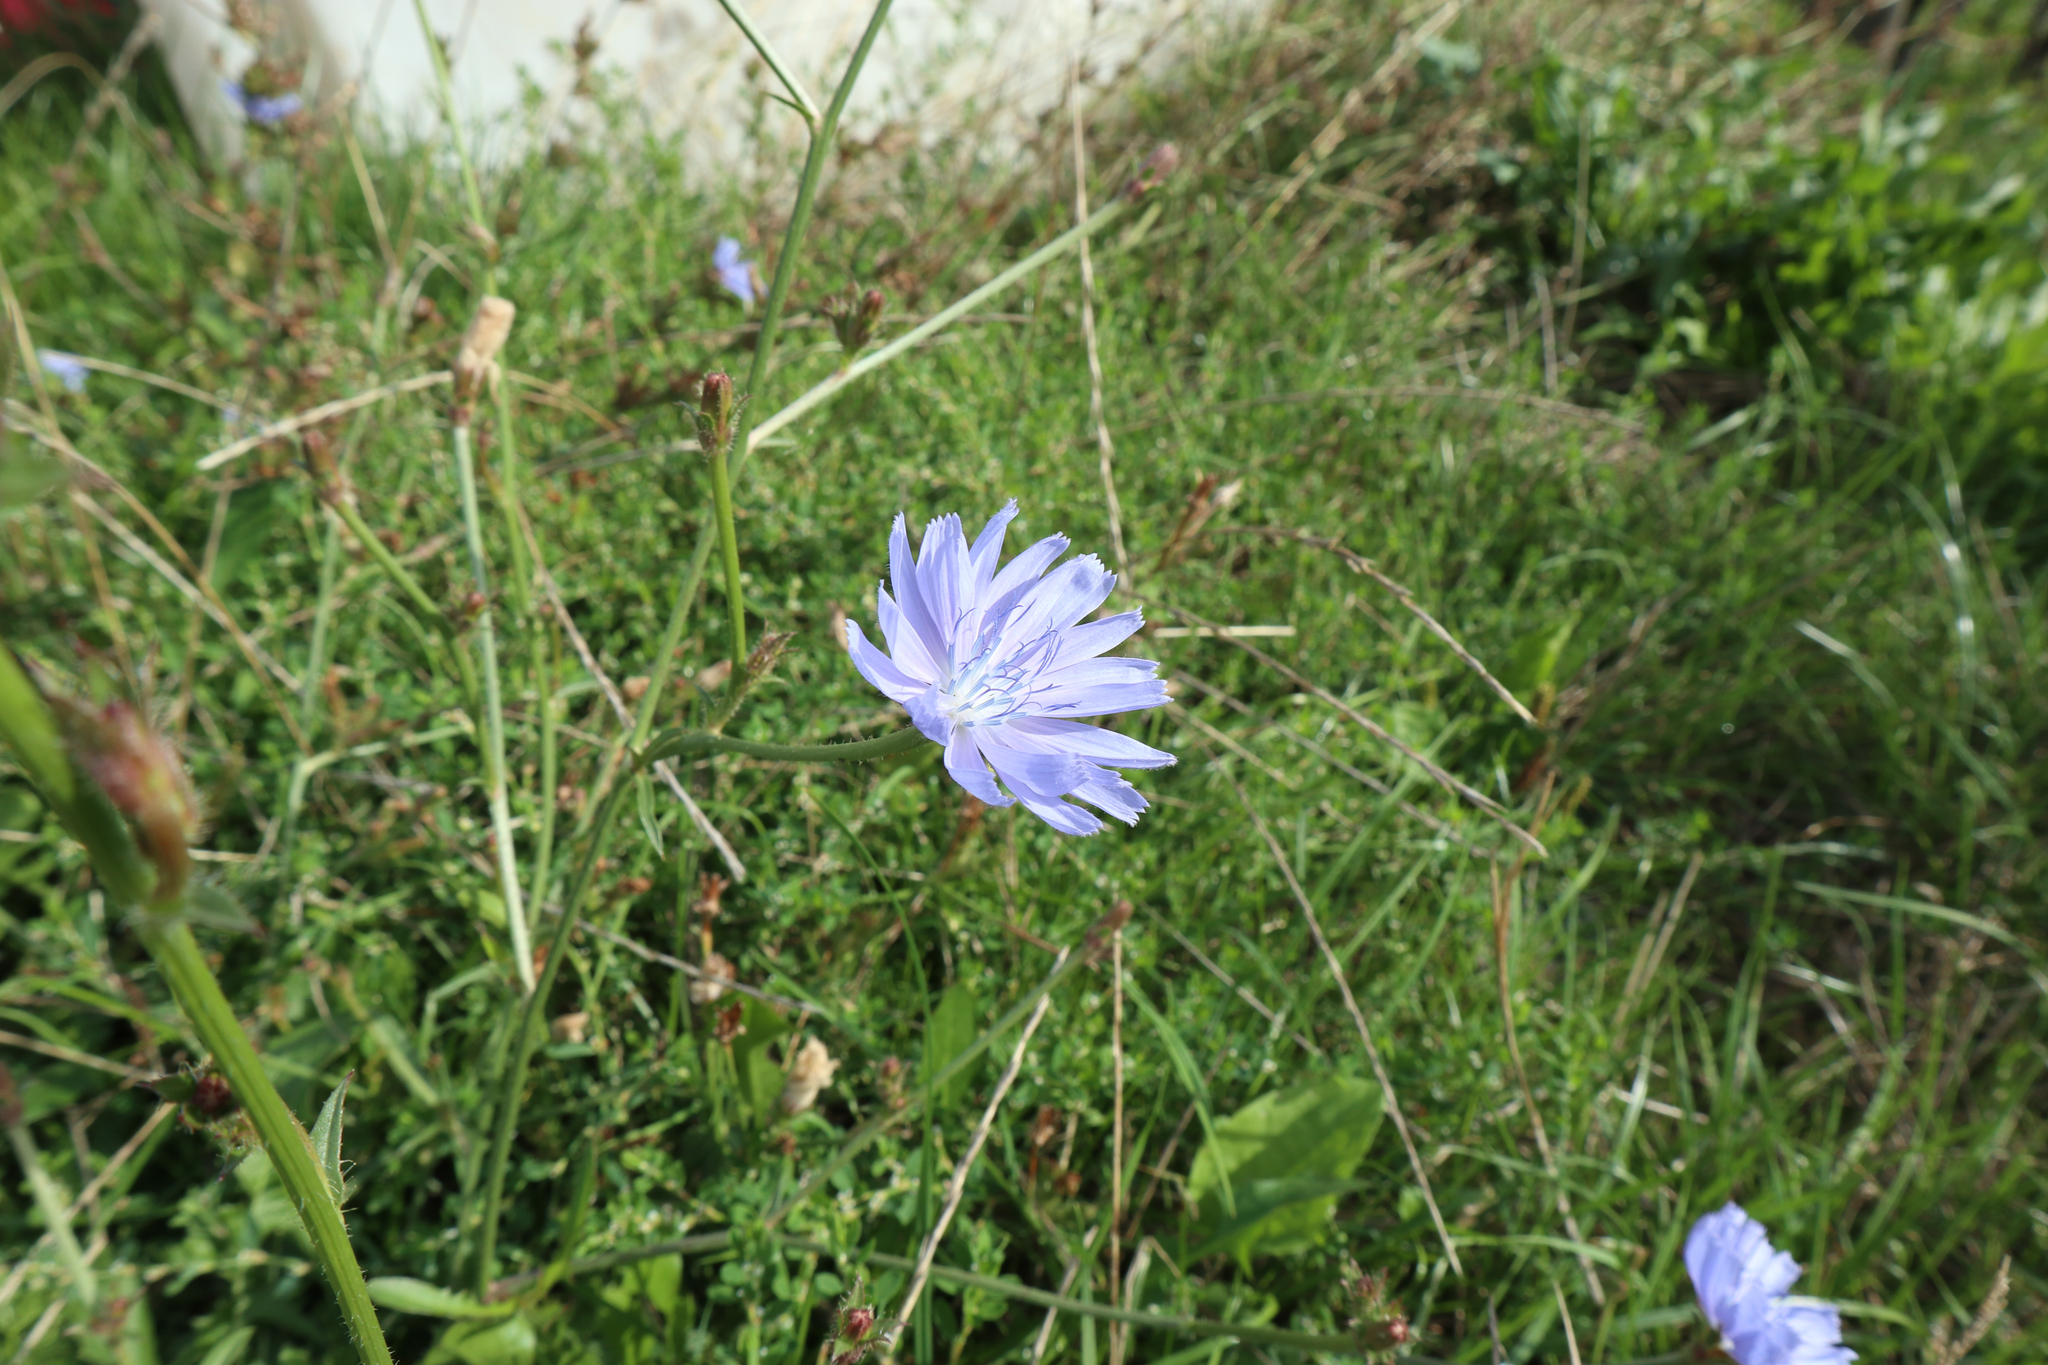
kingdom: Plantae
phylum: Tracheophyta
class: Magnoliopsida
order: Asterales
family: Asteraceae
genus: Cichorium
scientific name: Cichorium intybus
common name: Chicory
